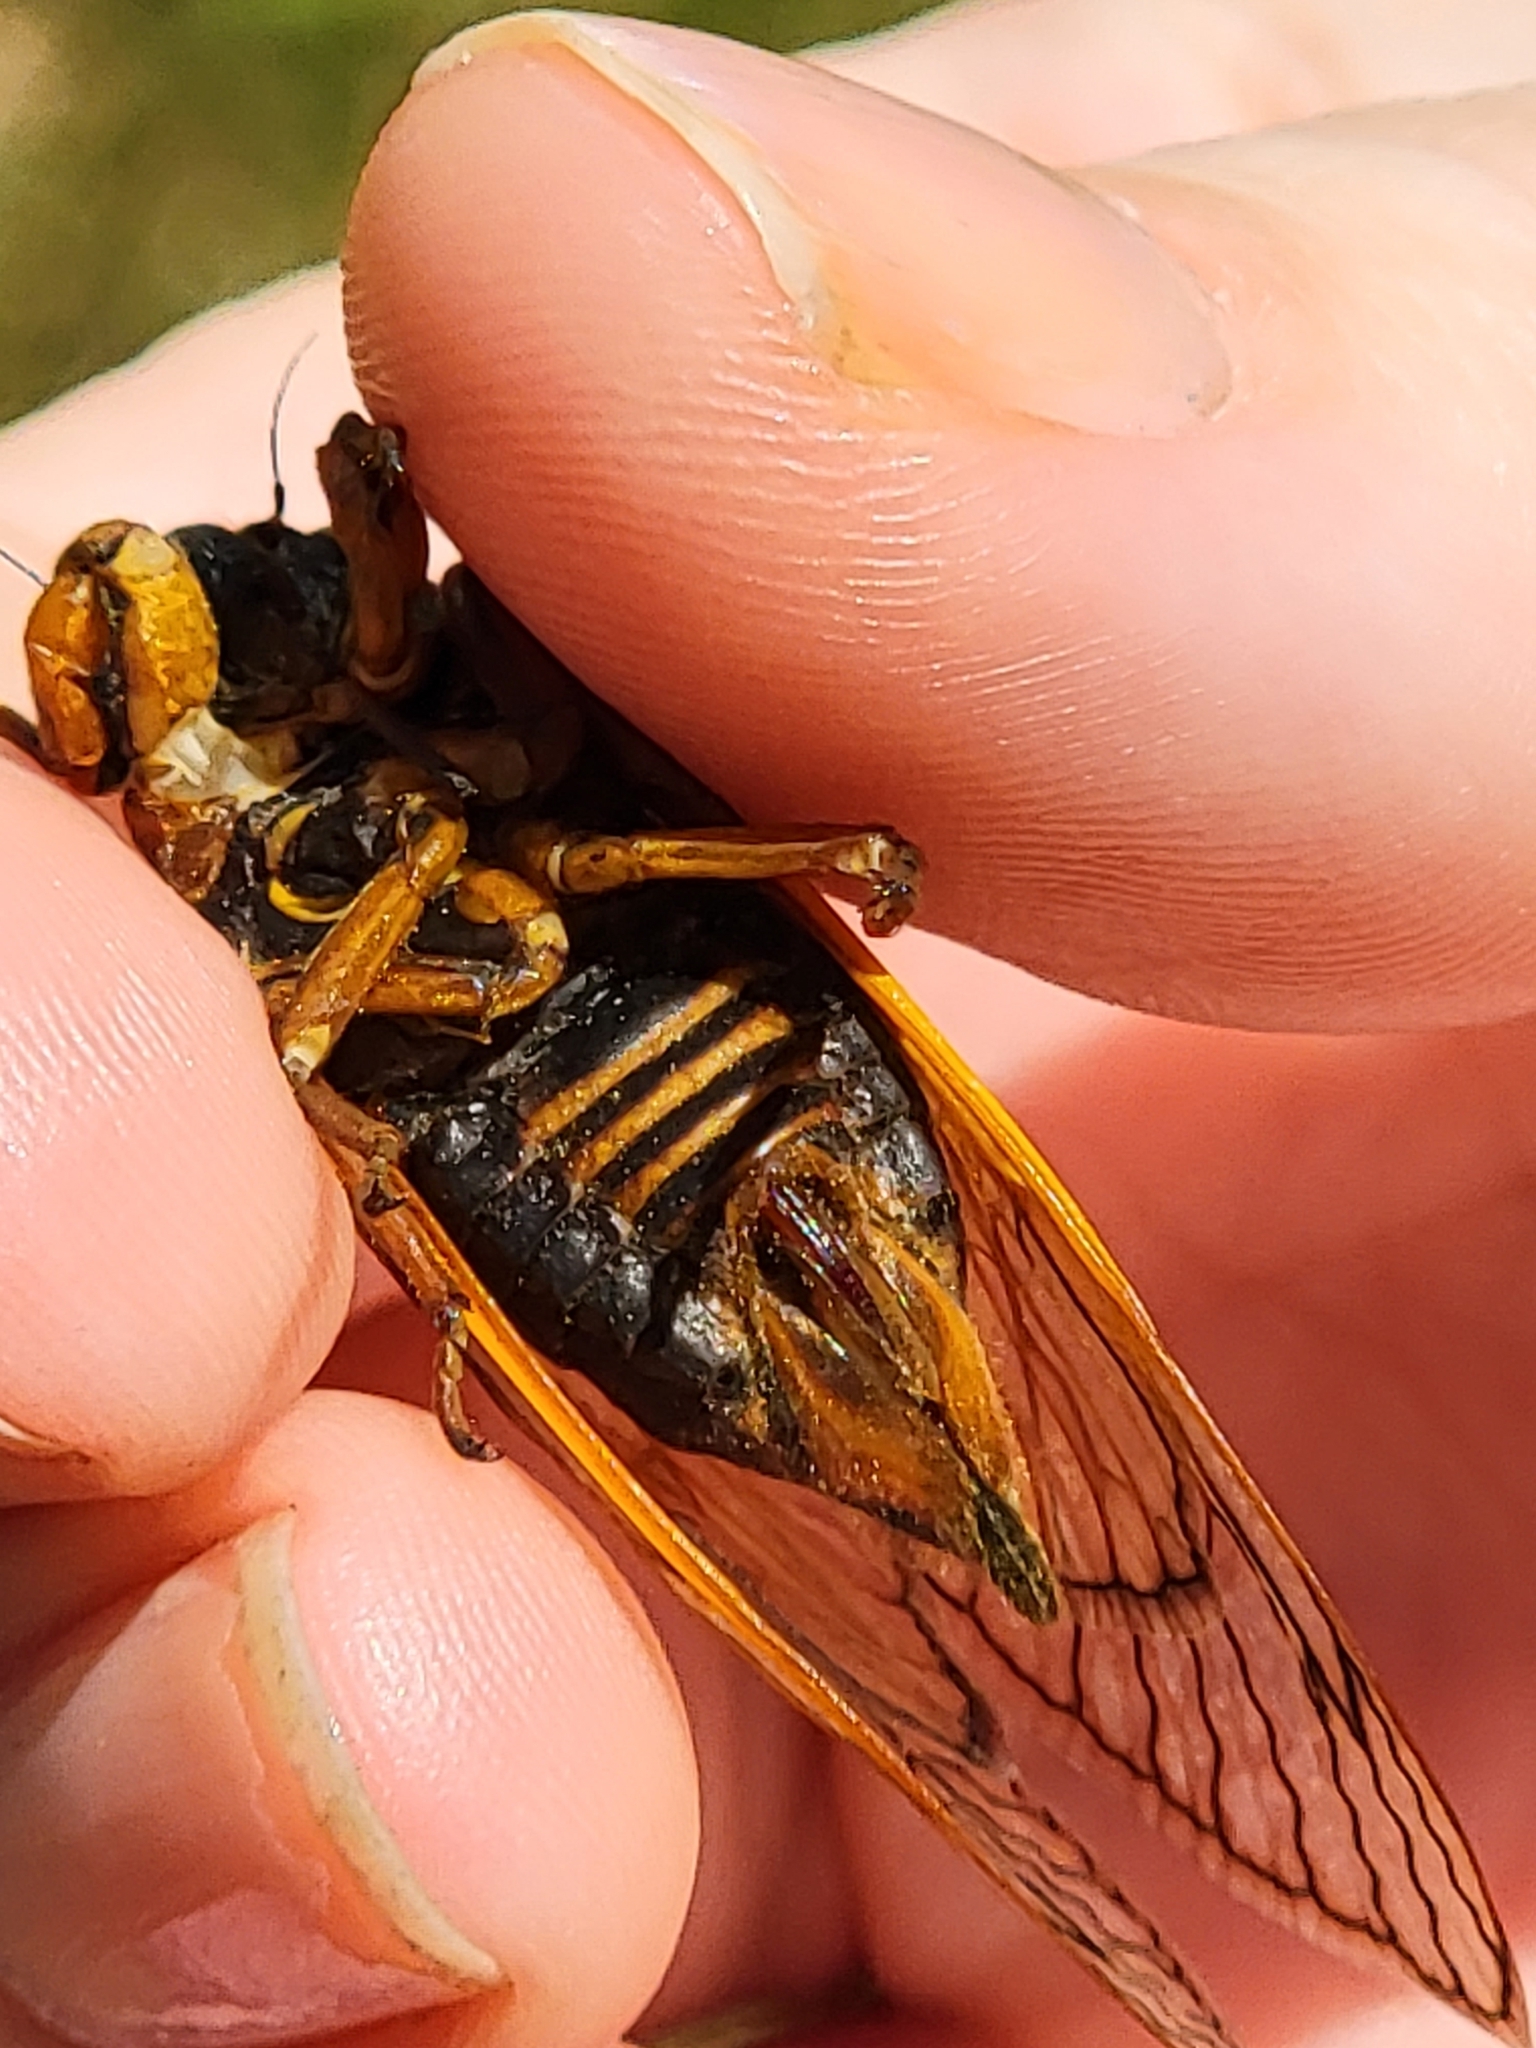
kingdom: Animalia
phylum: Arthropoda
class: Insecta
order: Hemiptera
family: Cicadidae
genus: Magicicada
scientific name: Magicicada septendecim
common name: Periodical cicada
